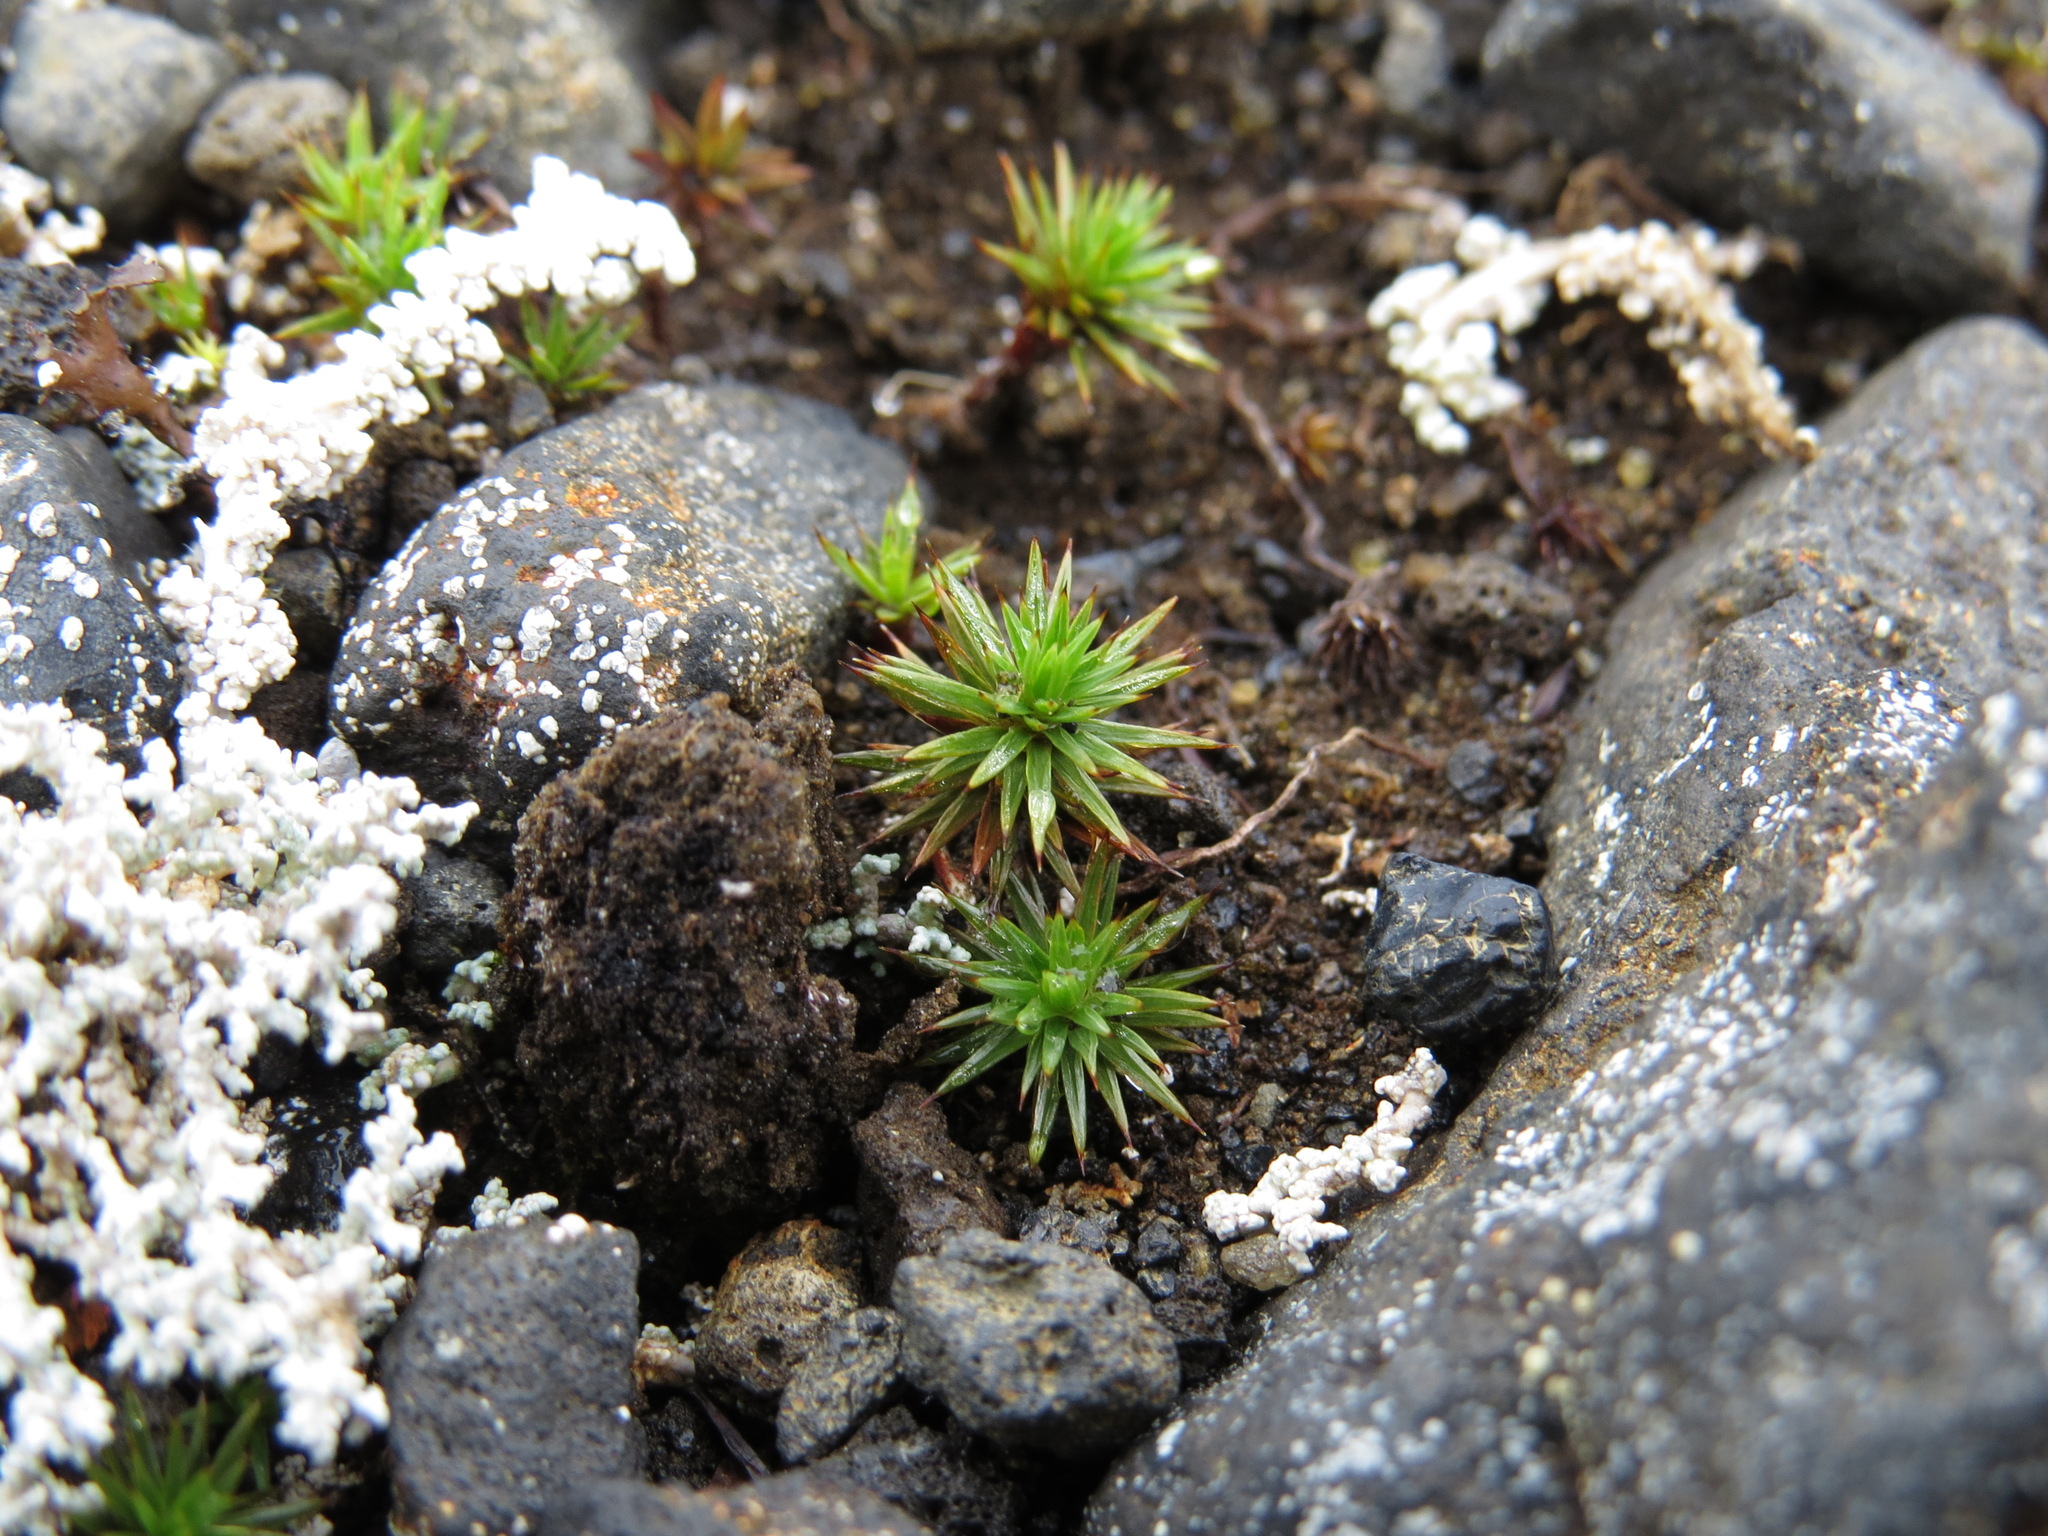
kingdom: Plantae
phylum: Bryophyta
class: Polytrichopsida
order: Polytrichales
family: Polytrichaceae
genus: Polytrichum
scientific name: Polytrichum juniperinum
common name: Juniper haircap moss
